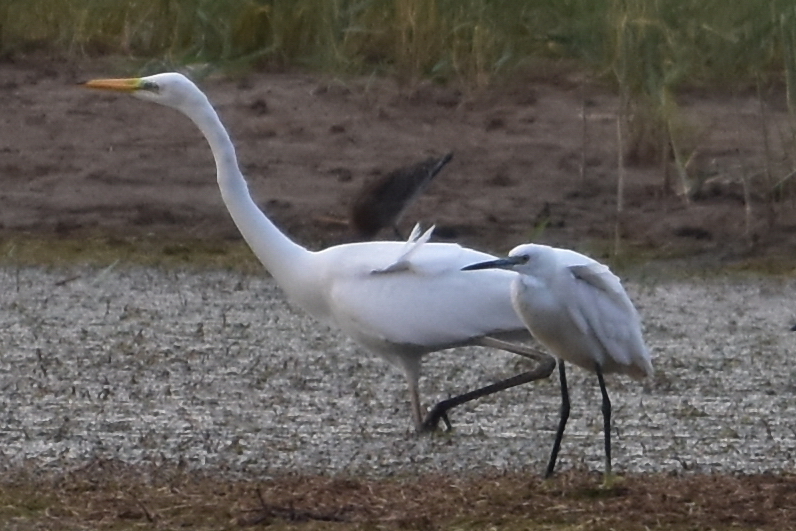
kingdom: Animalia
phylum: Chordata
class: Aves
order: Pelecaniformes
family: Ardeidae
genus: Ardea
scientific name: Ardea alba
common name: Great egret
